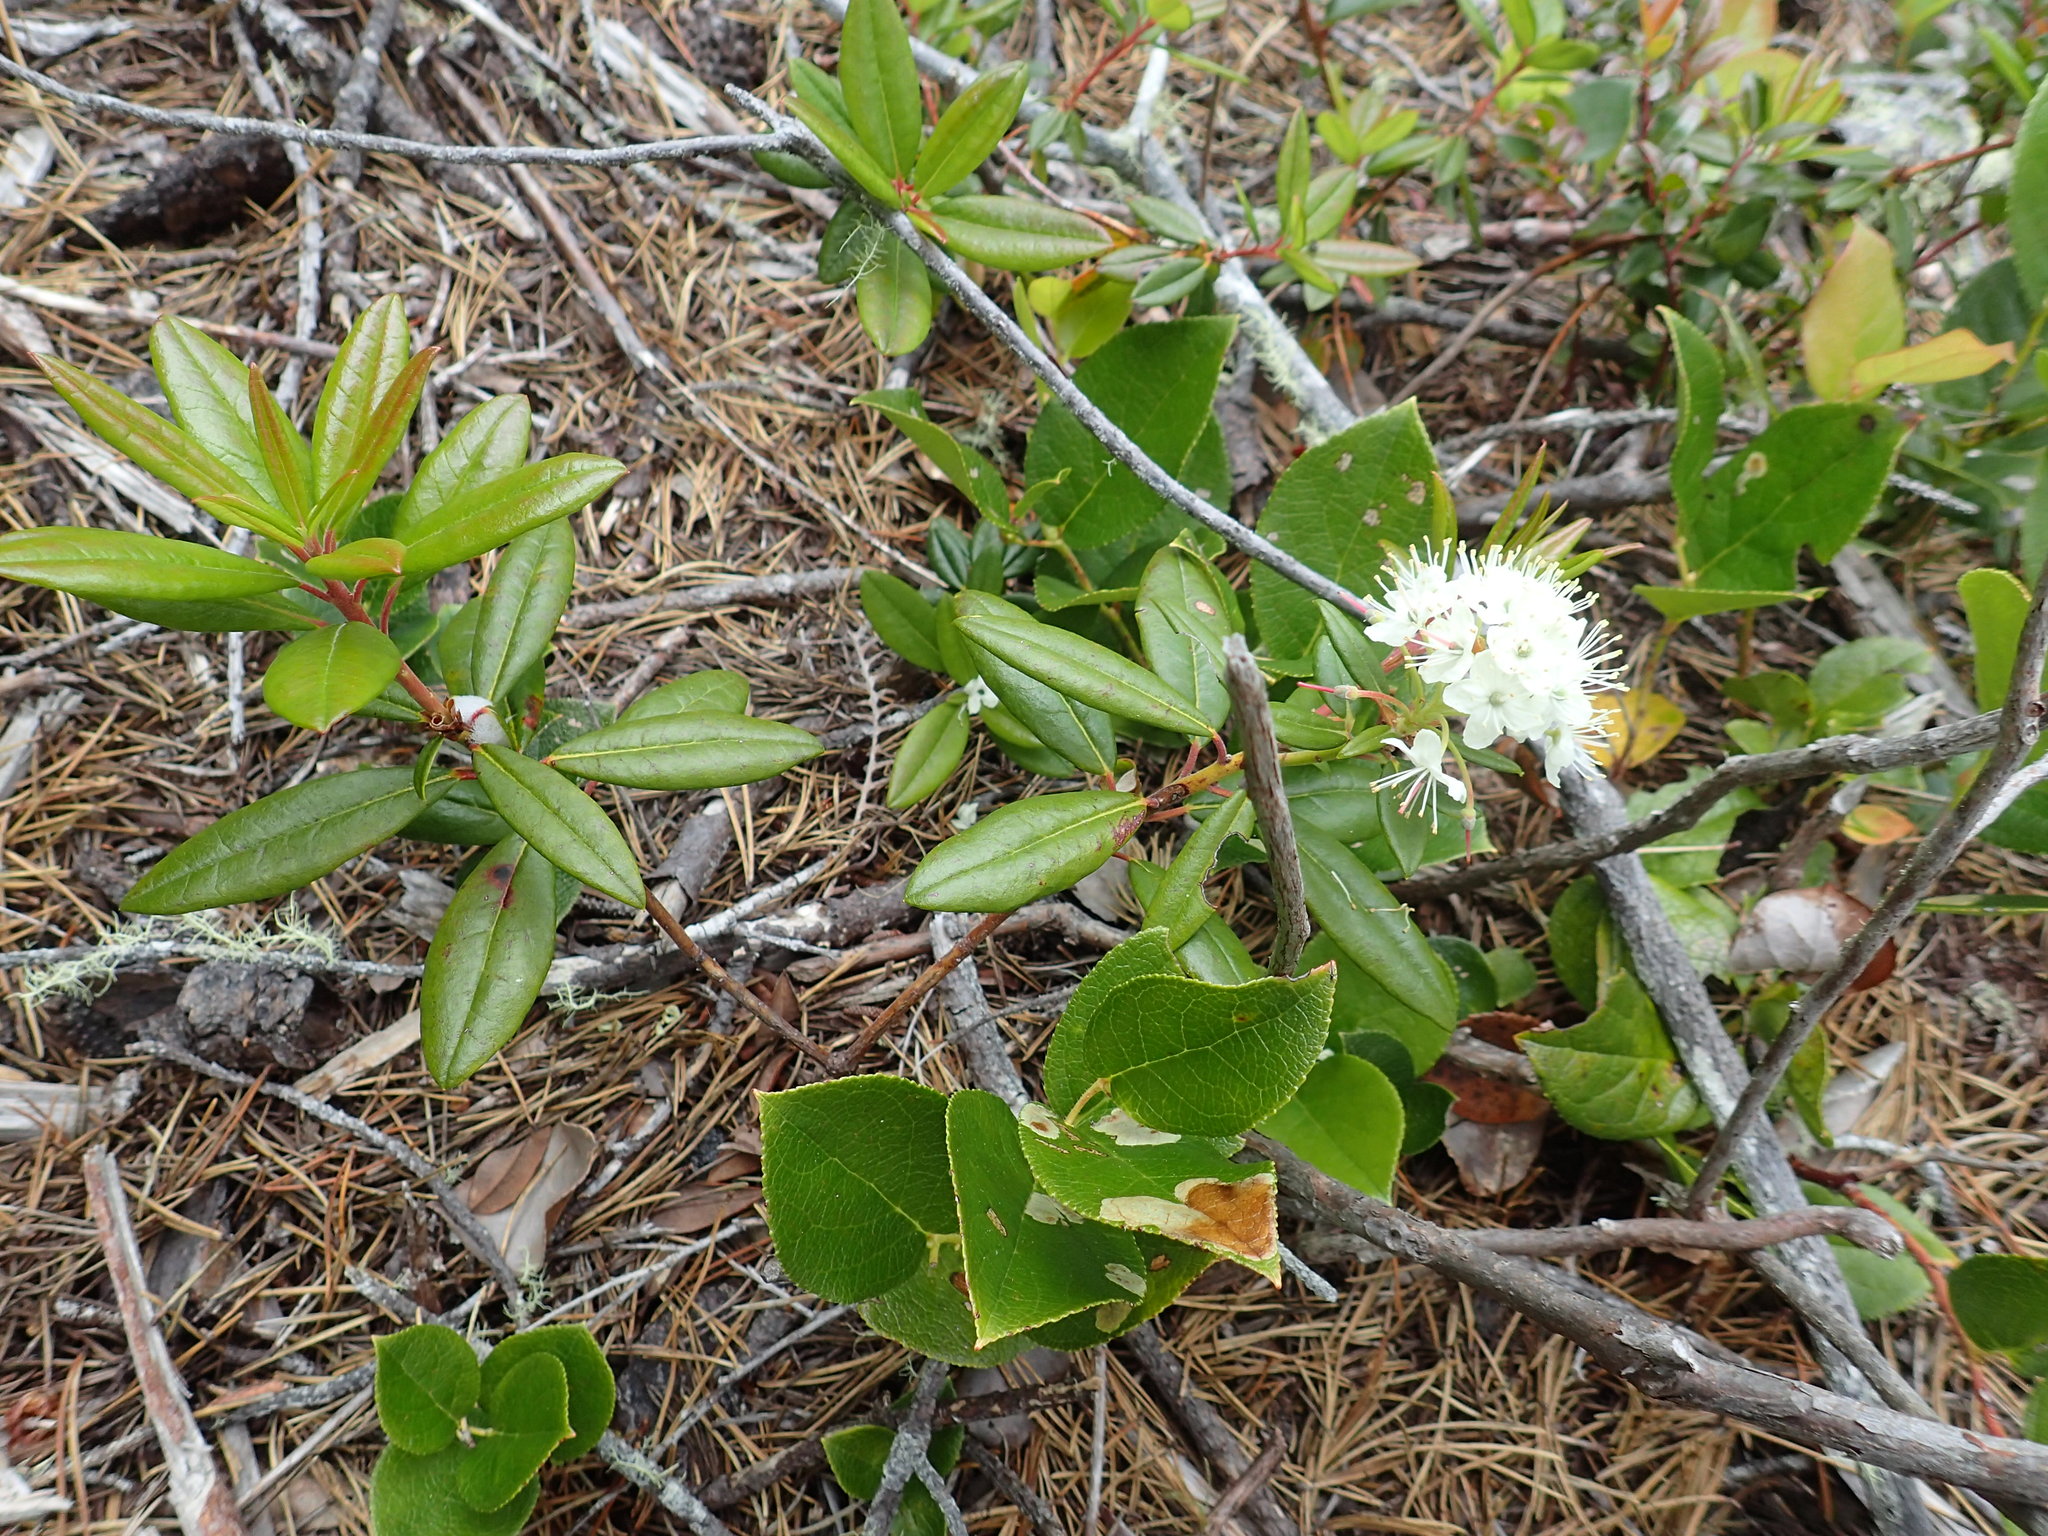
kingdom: Plantae
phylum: Tracheophyta
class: Magnoliopsida
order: Ericales
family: Ericaceae
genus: Rhododendron
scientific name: Rhododendron columbianum
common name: Western labrador tea
